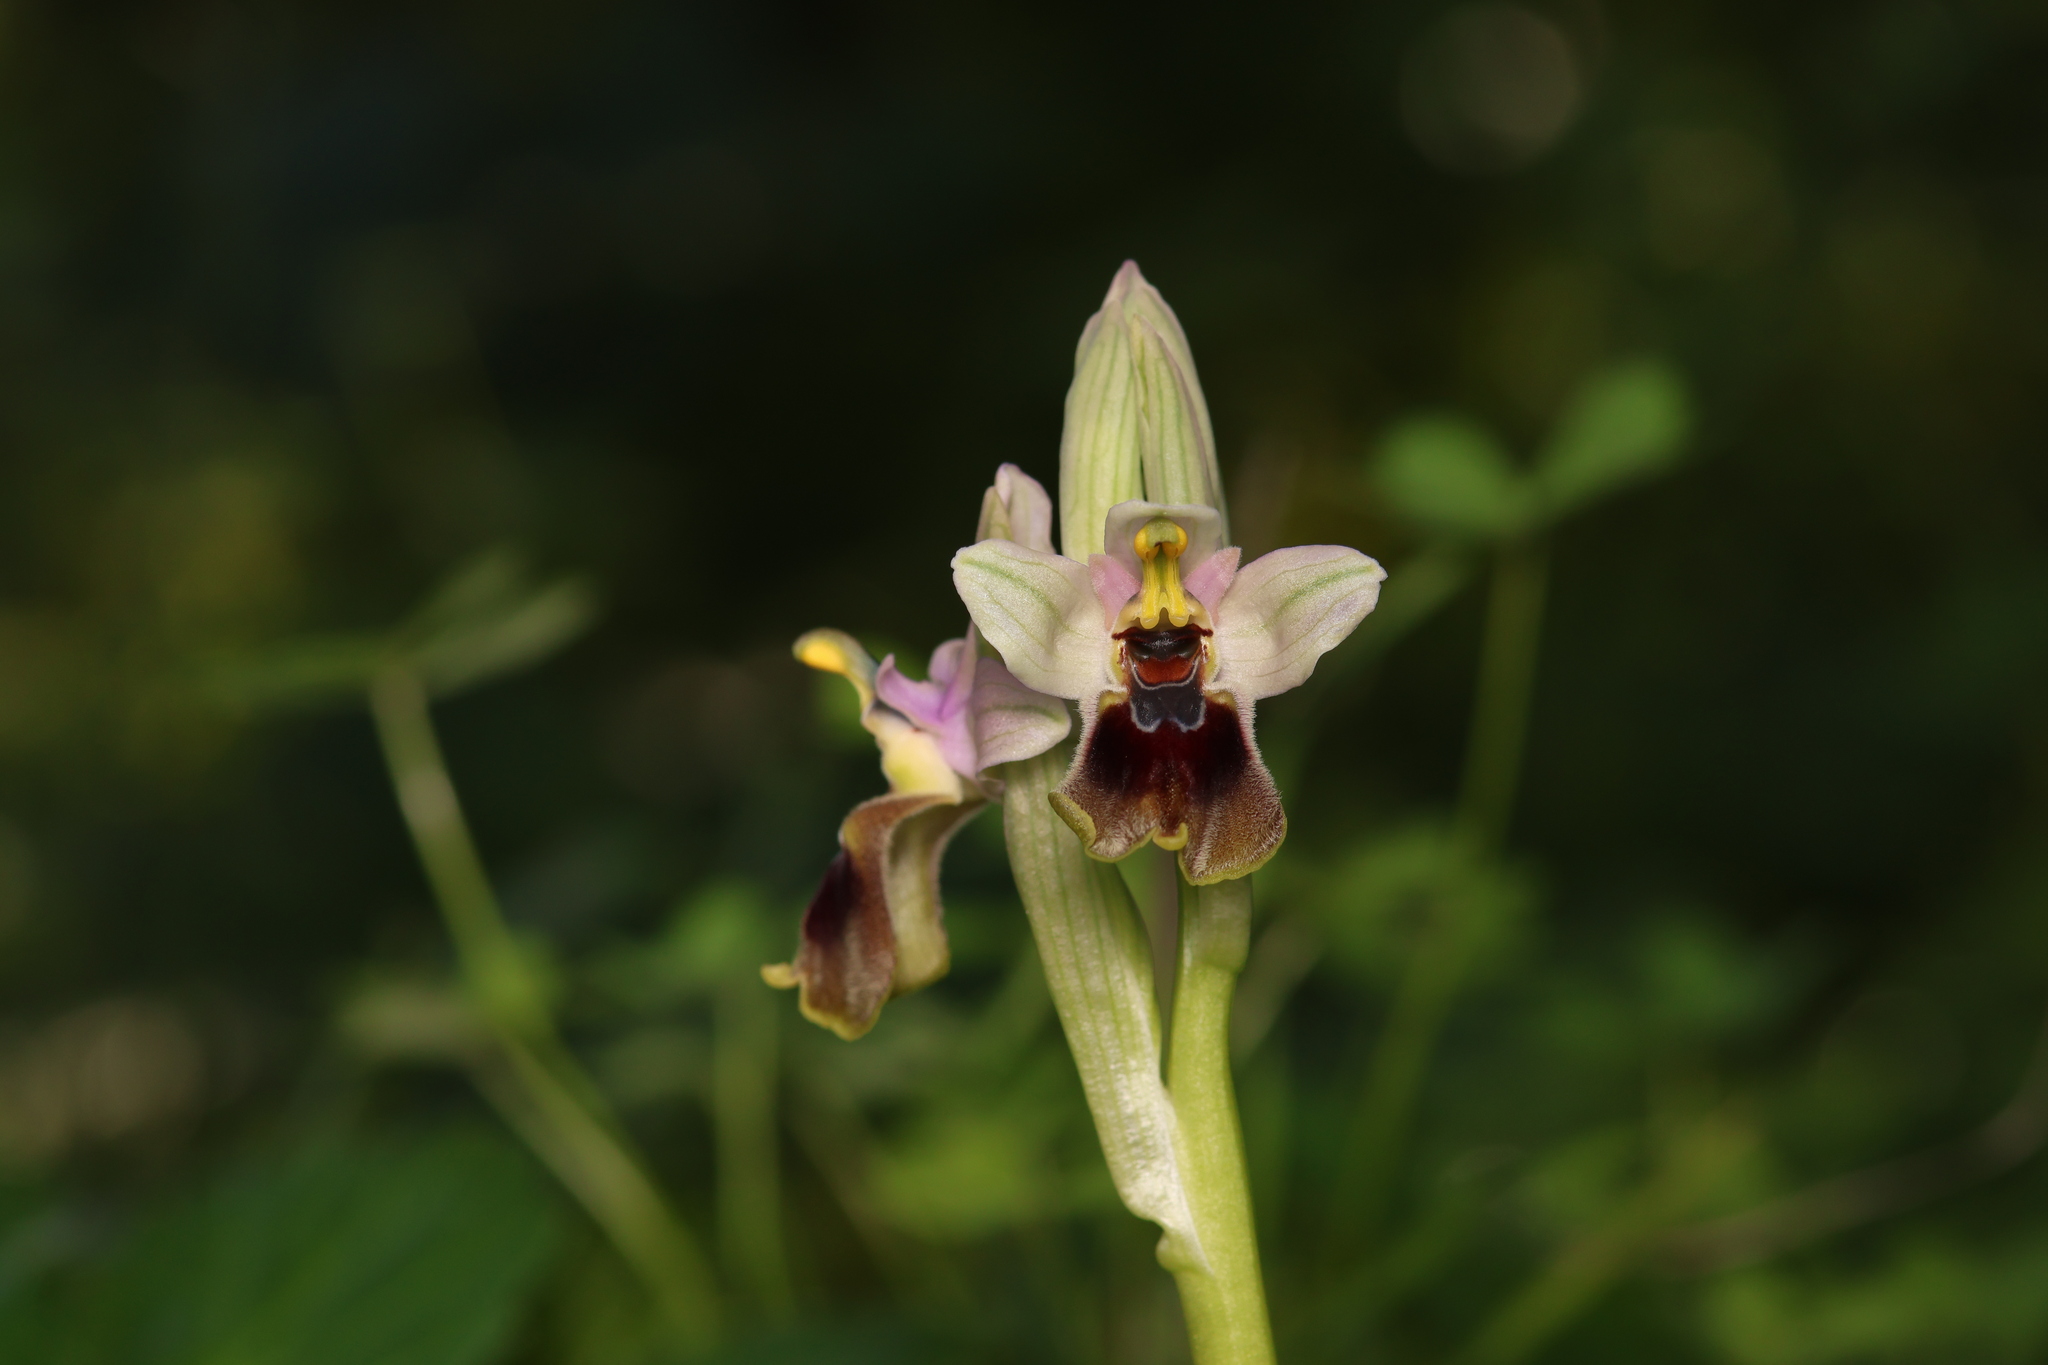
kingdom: Plantae
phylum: Tracheophyta
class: Liliopsida
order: Asparagales
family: Orchidaceae
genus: Ophrys
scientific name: Ophrys tenthredinifera
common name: Sawfly orchid
